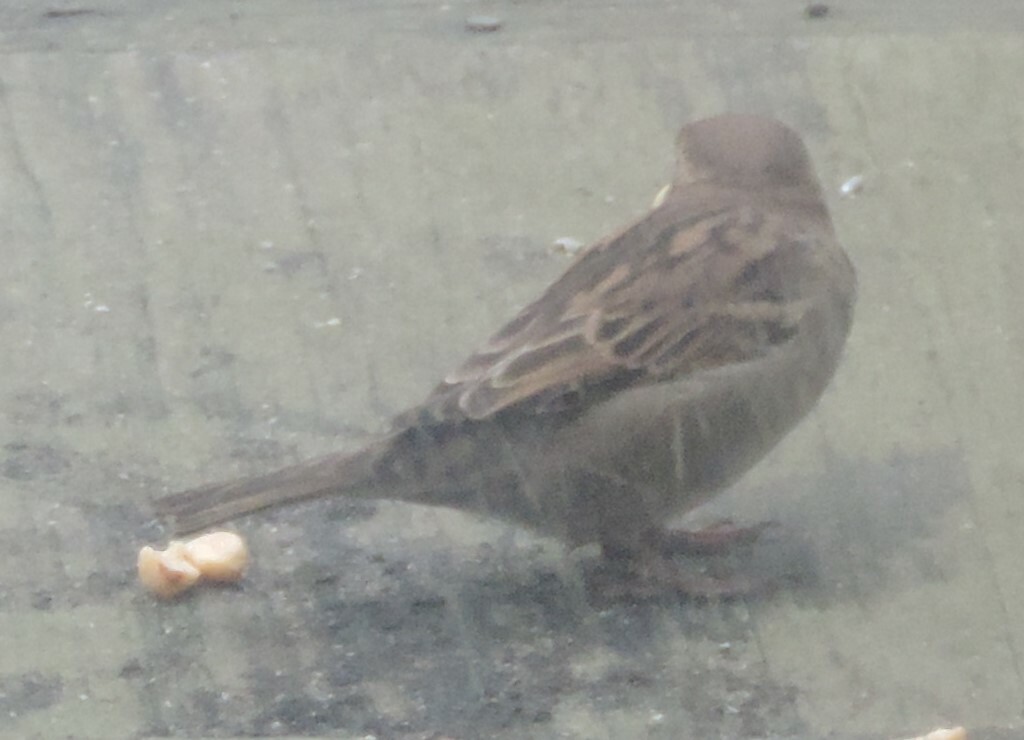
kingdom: Animalia
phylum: Chordata
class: Aves
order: Passeriformes
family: Passeridae
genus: Passer
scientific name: Passer domesticus
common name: House sparrow
